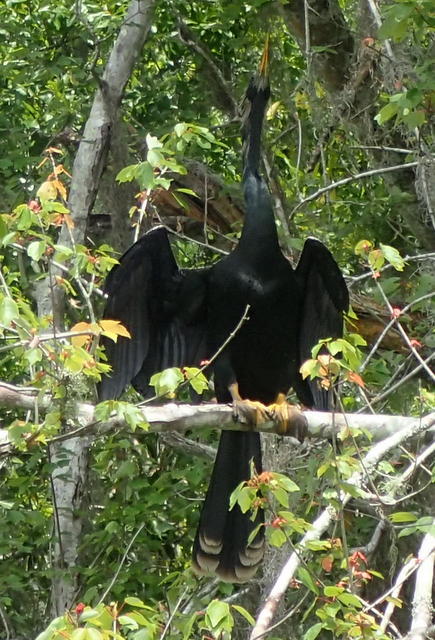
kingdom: Animalia
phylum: Chordata
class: Aves
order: Suliformes
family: Anhingidae
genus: Anhinga
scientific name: Anhinga anhinga
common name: Anhinga
